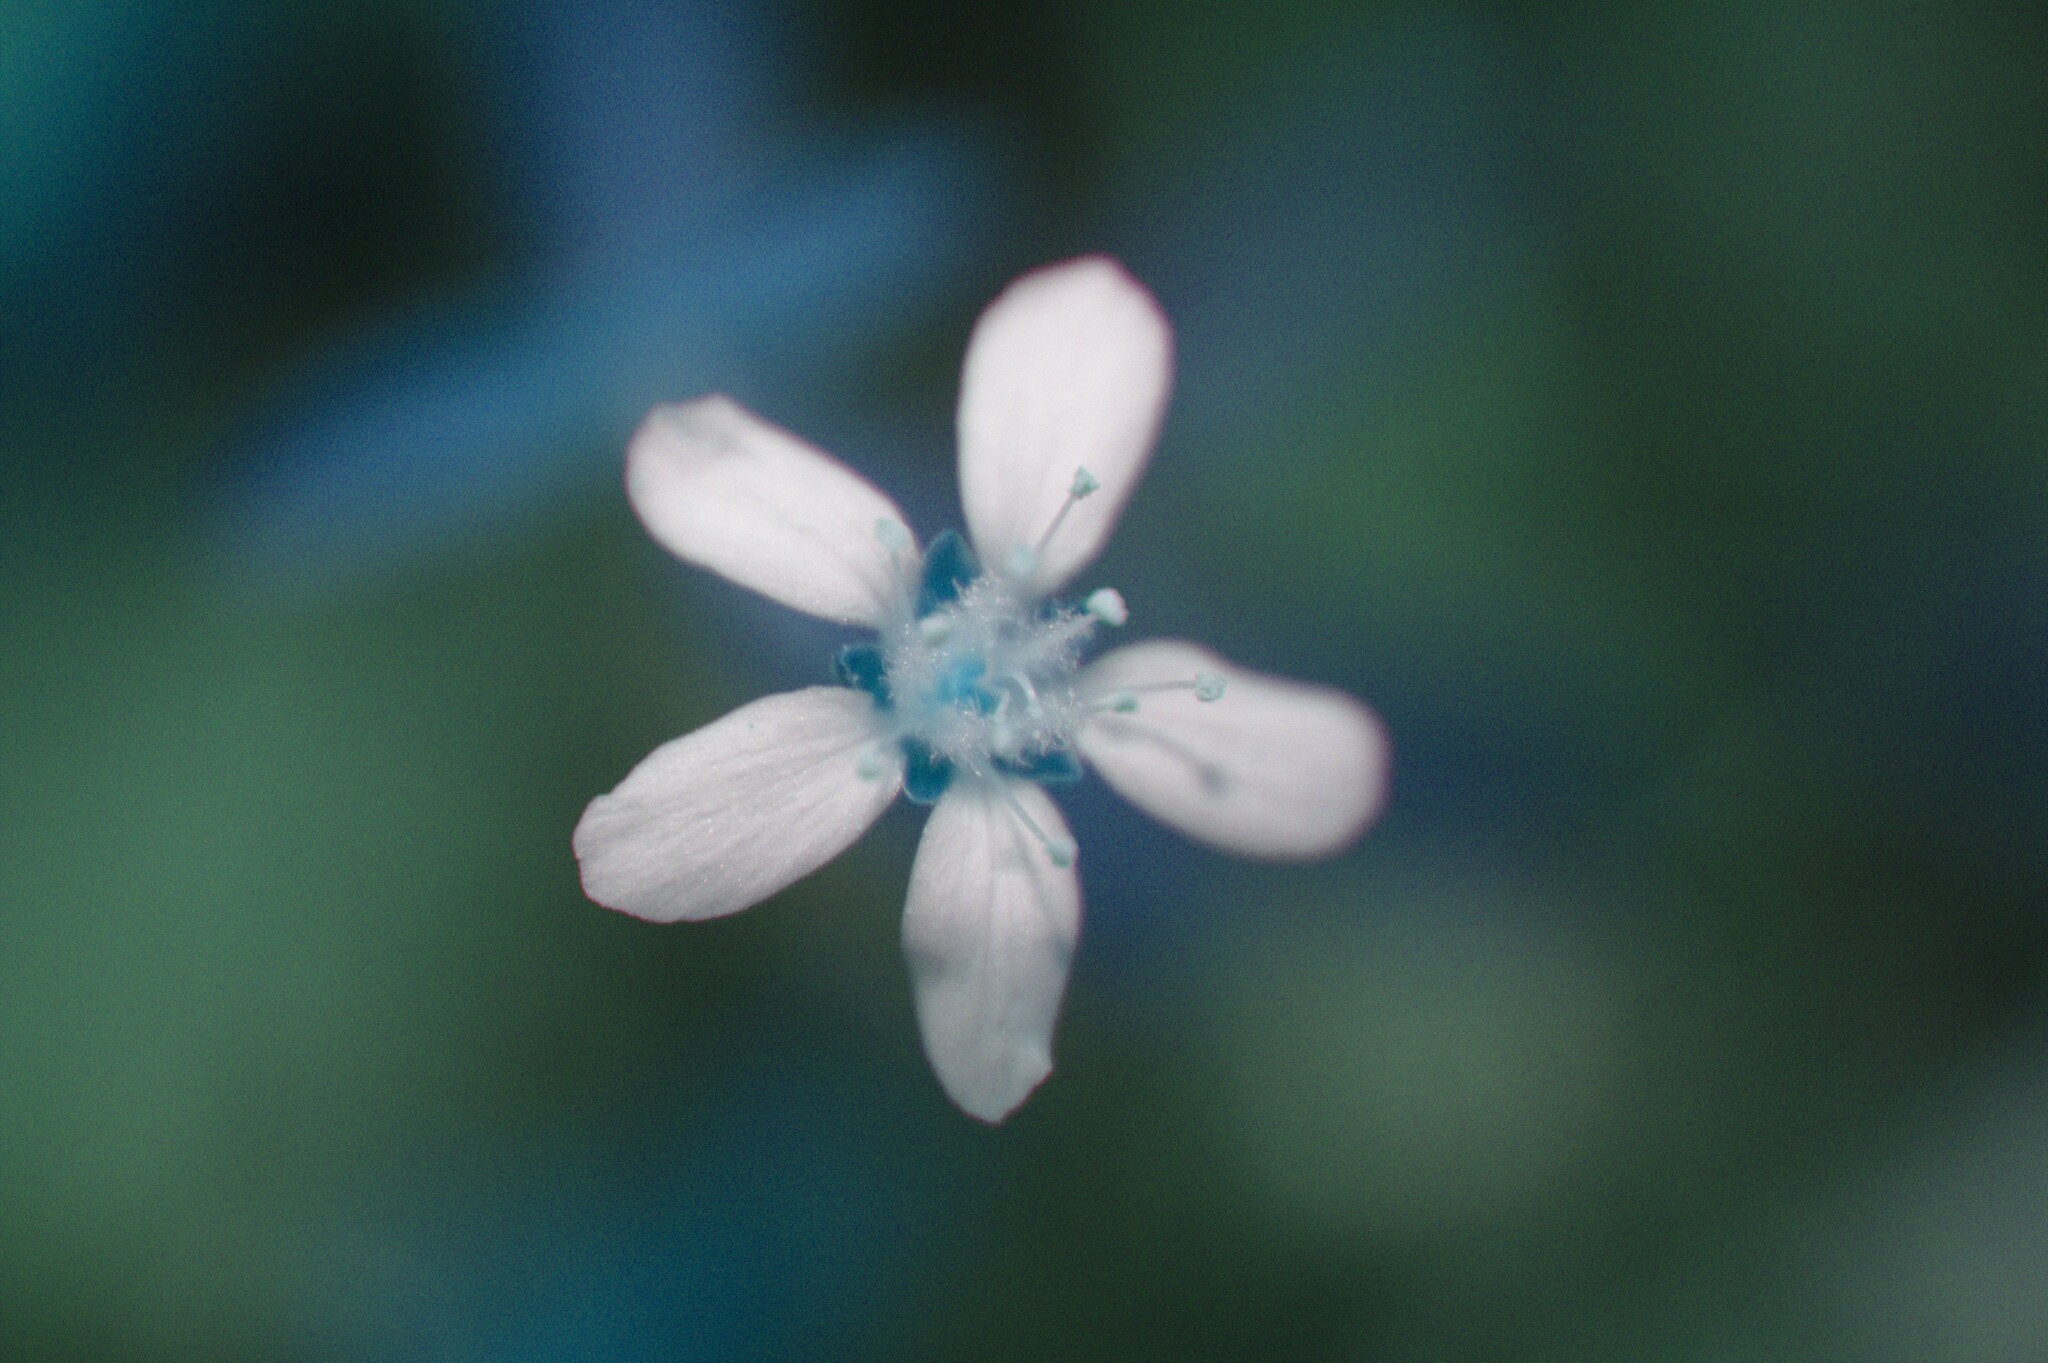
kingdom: Plantae
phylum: Tracheophyta
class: Magnoliopsida
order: Caryophyllales
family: Caryophyllaceae
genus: Moehringia
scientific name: Moehringia lateriflora
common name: Blunt-leaved sandwort
